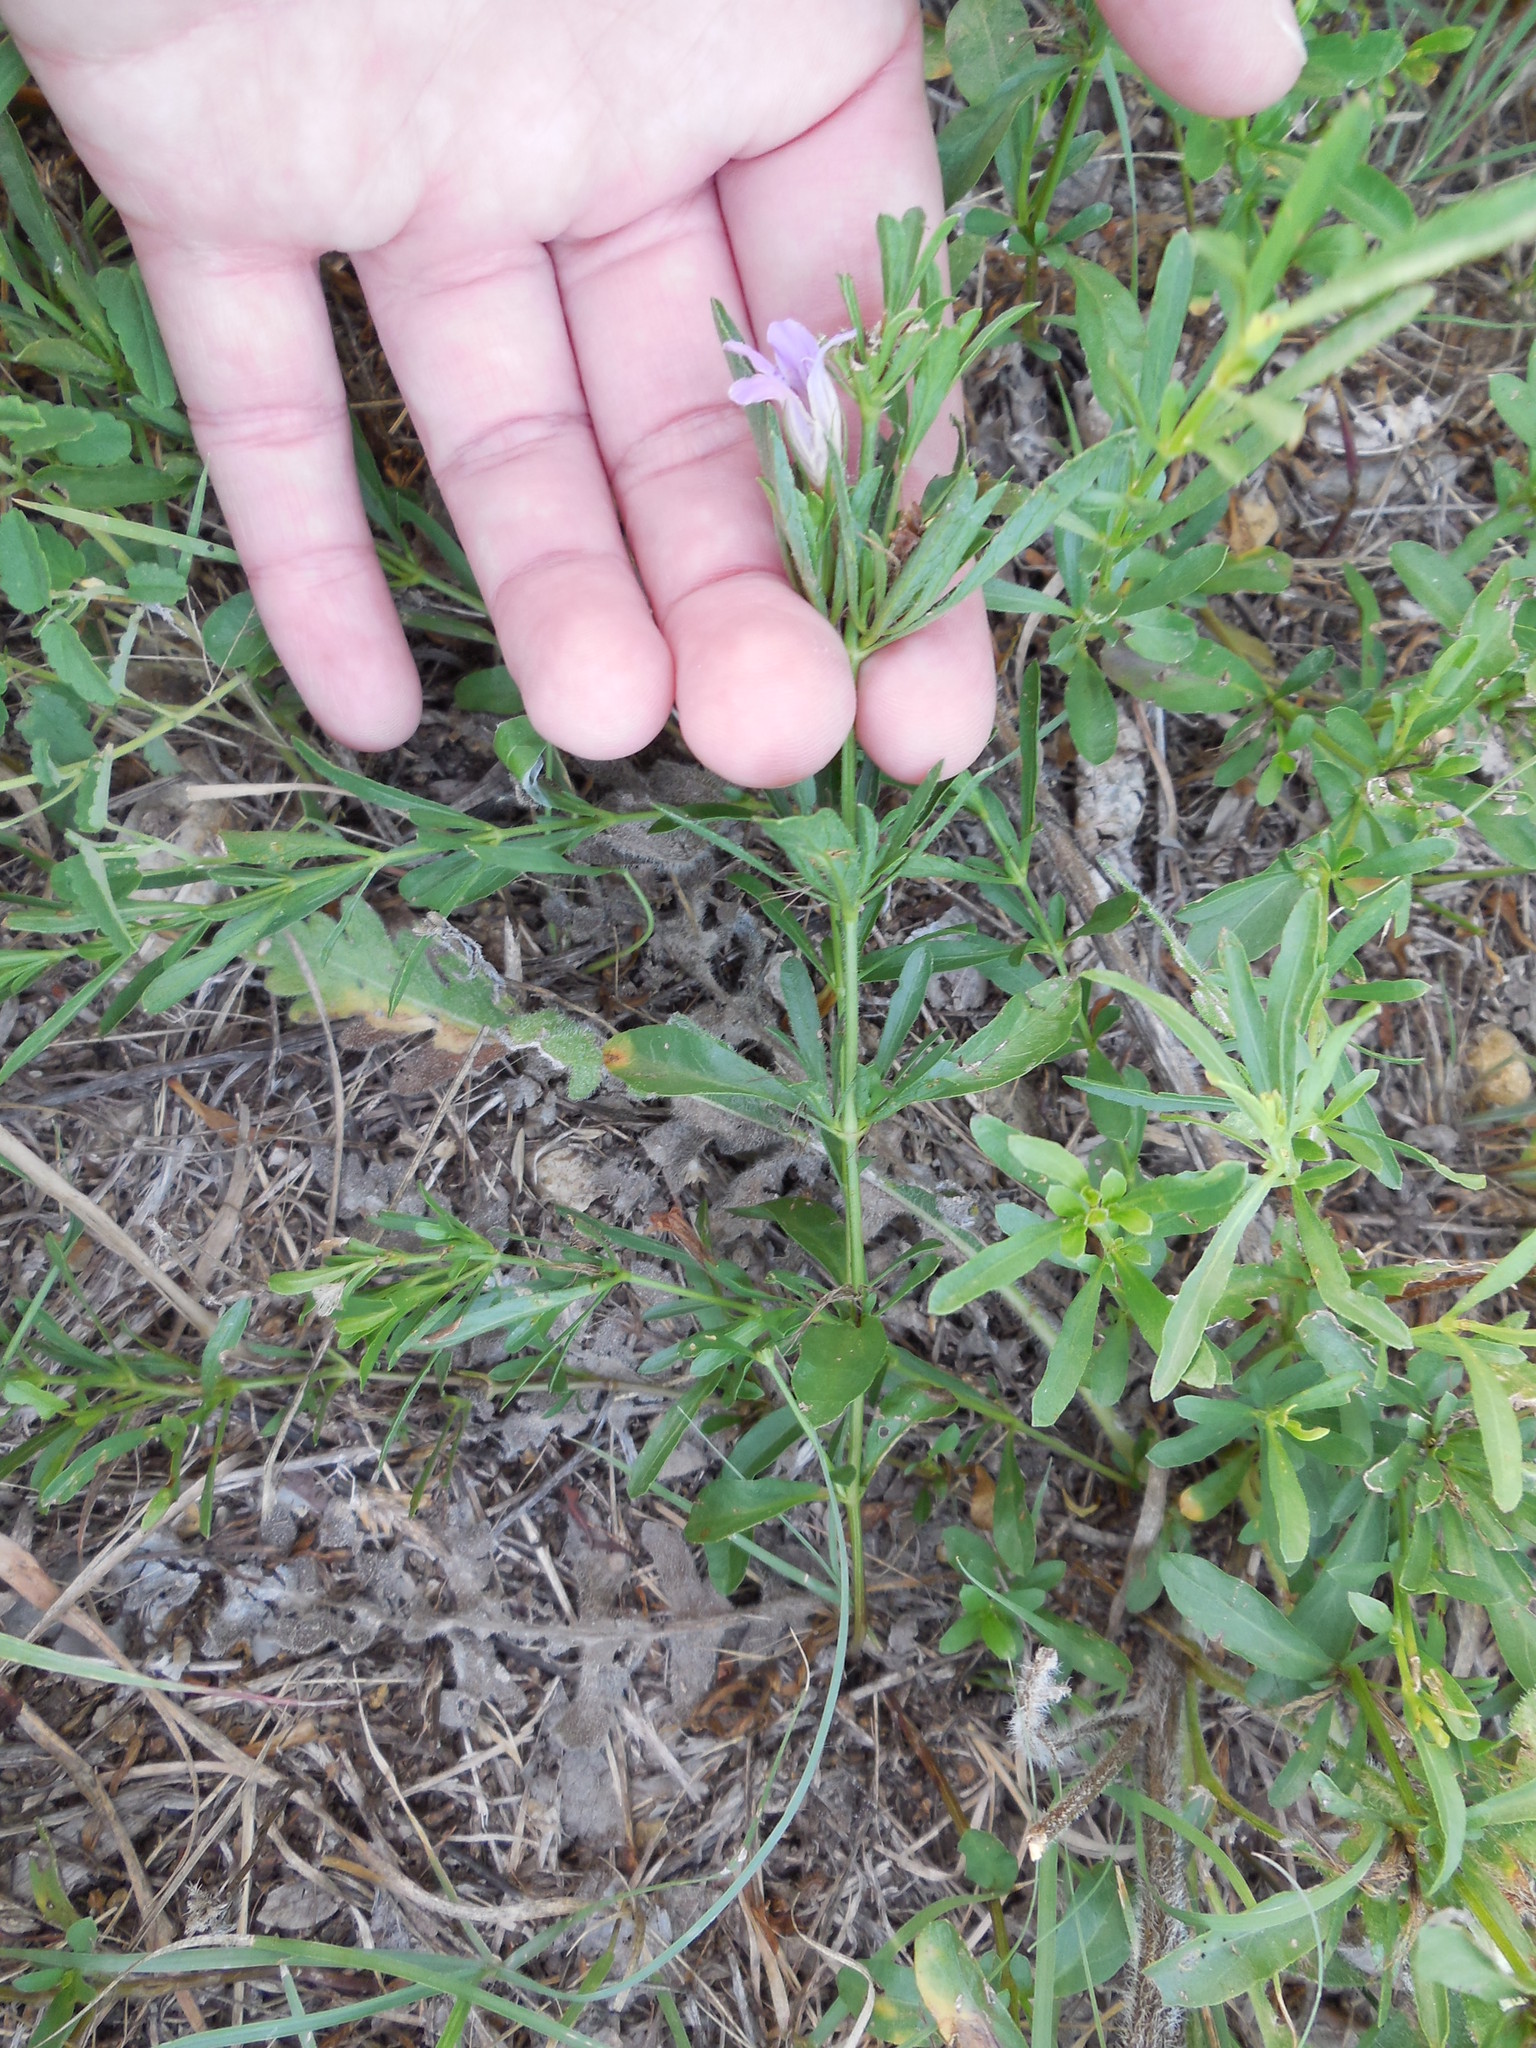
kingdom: Plantae
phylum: Tracheophyta
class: Magnoliopsida
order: Lamiales
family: Acanthaceae
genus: Dyschoriste
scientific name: Dyschoriste linearis
